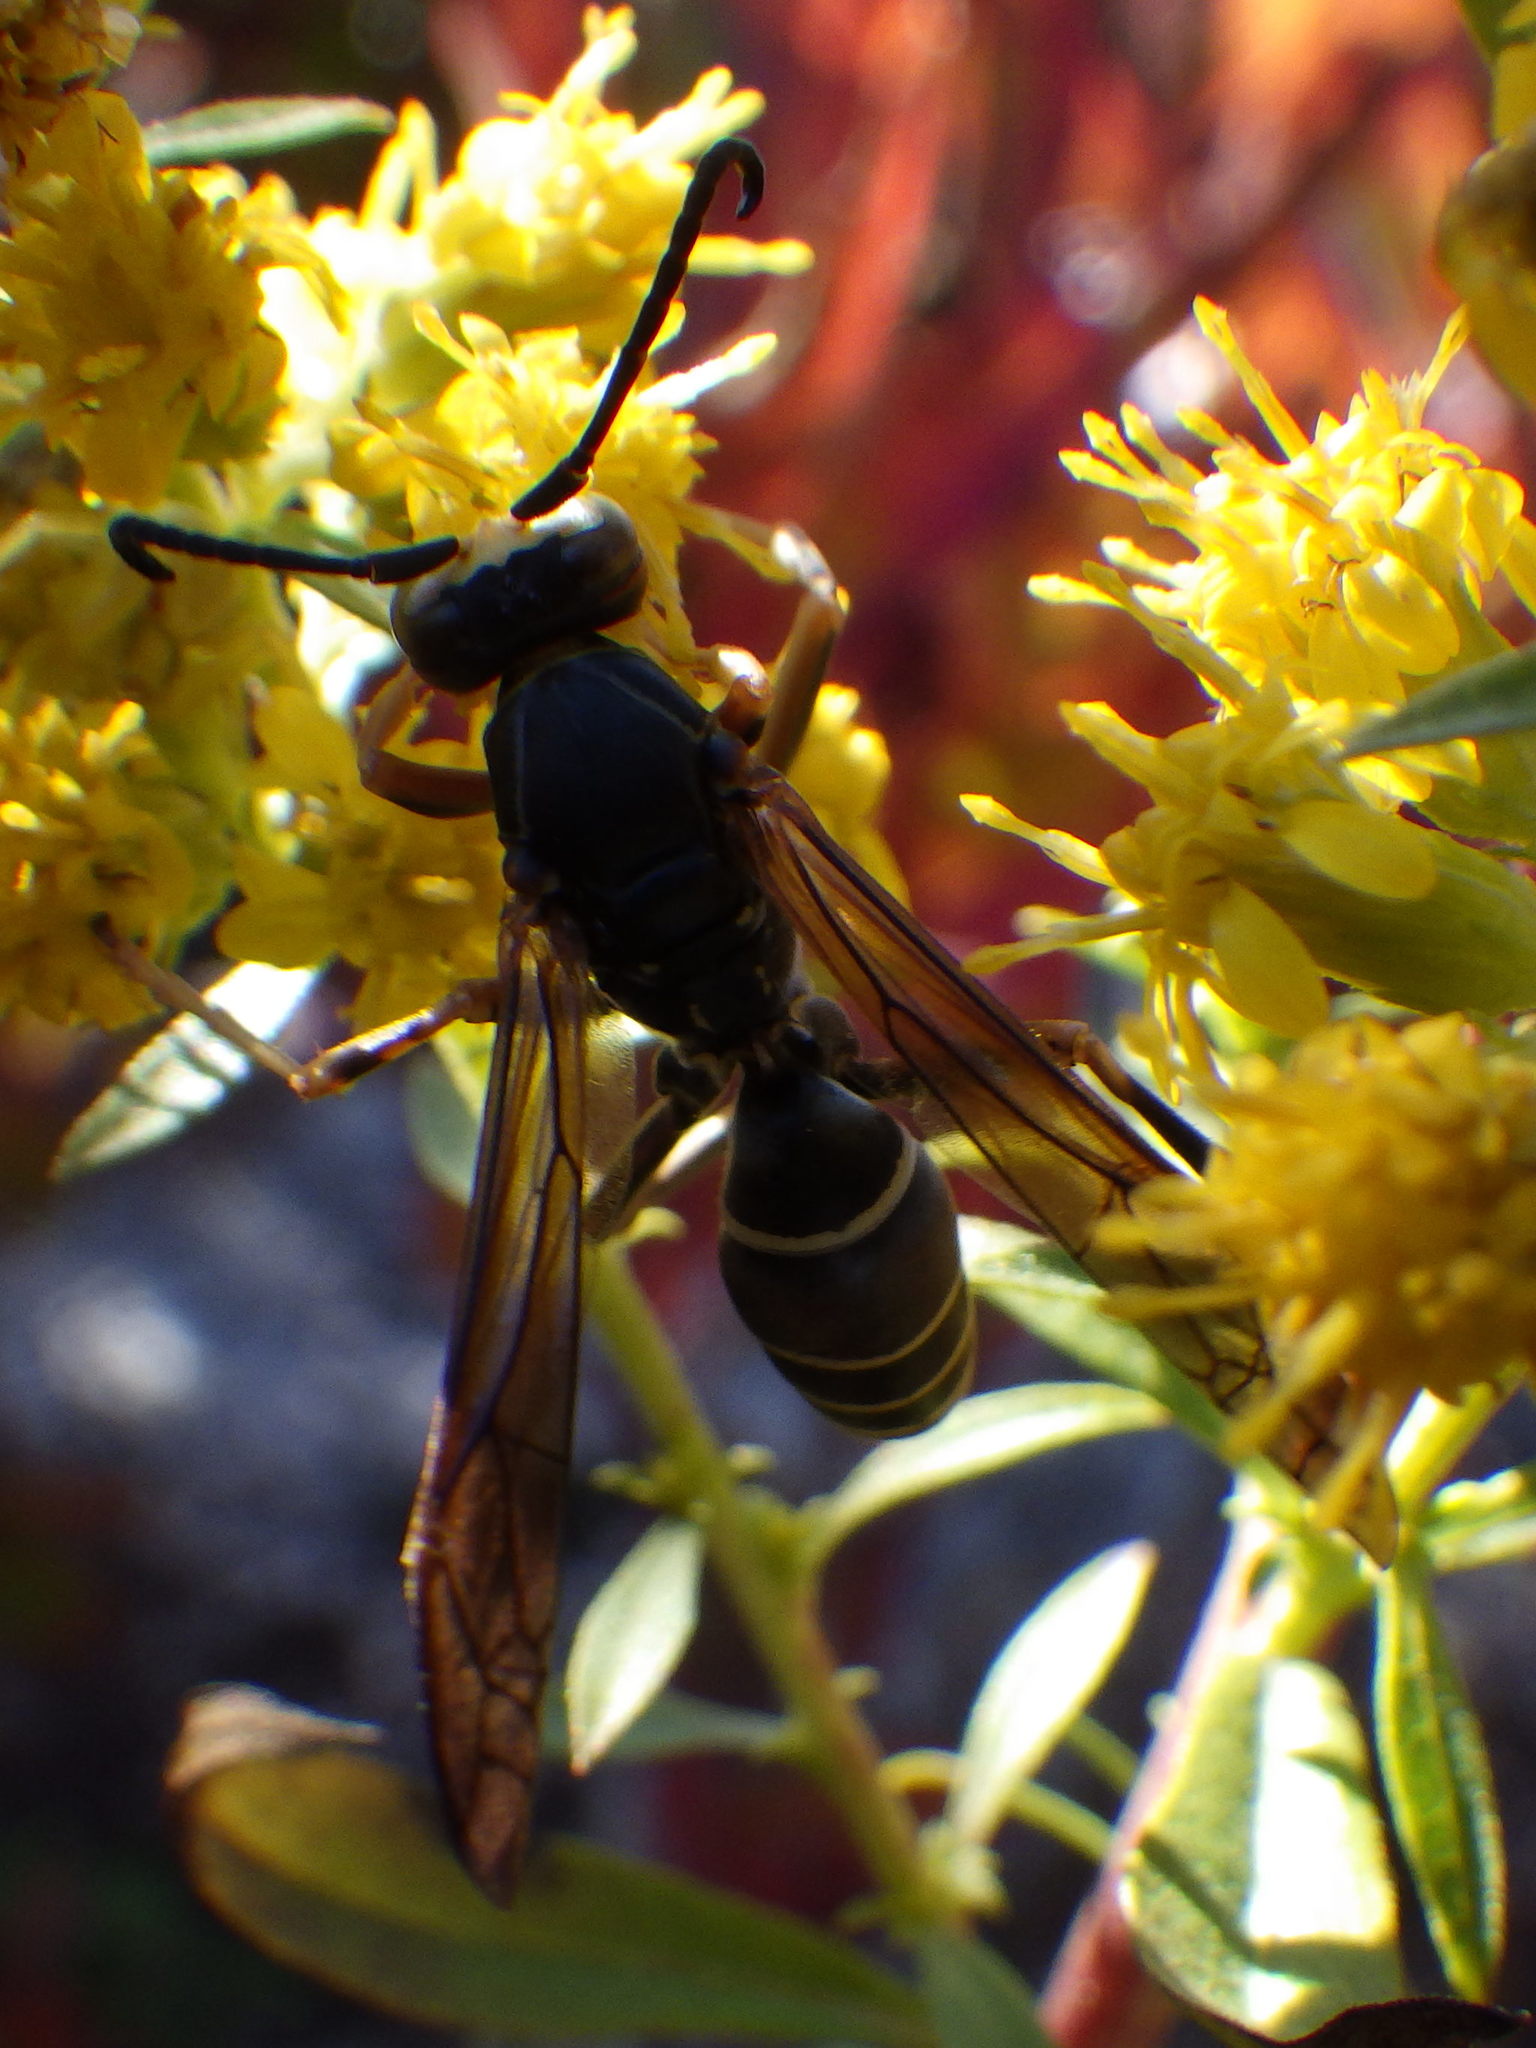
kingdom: Animalia
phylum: Arthropoda
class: Insecta
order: Hymenoptera
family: Eumenidae
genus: Polistes
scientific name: Polistes fuscatus
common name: Dark paper wasp
